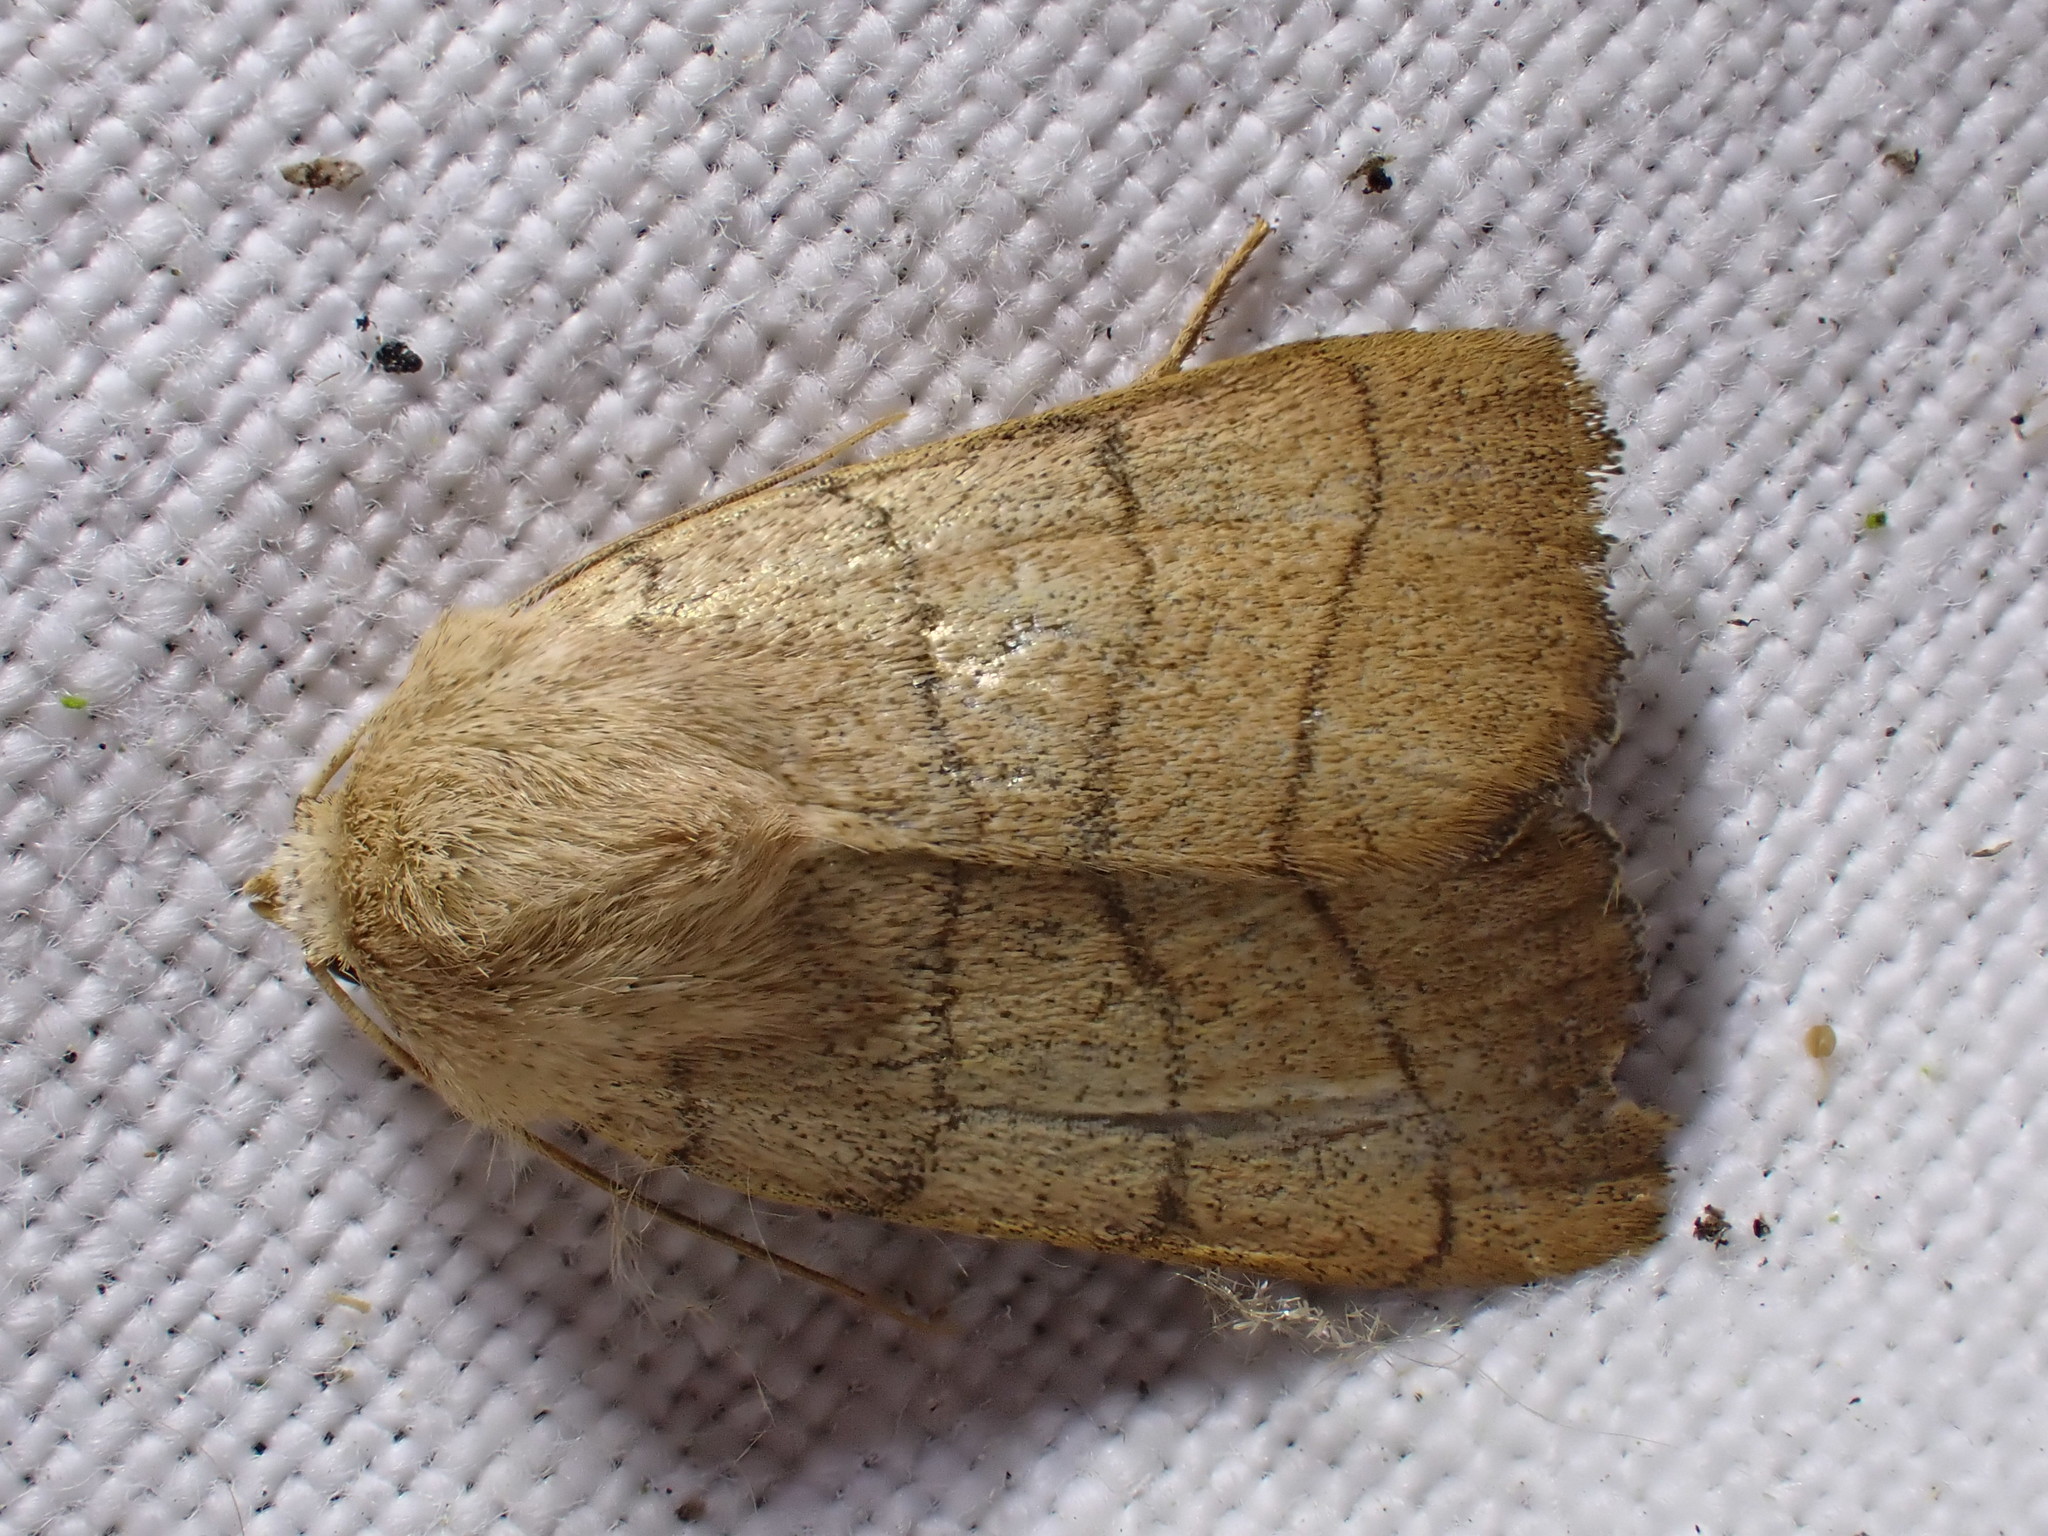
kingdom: Animalia
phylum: Arthropoda
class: Insecta
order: Lepidoptera
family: Noctuidae
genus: Charanyca
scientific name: Charanyca trigrammica
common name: Treble lines
